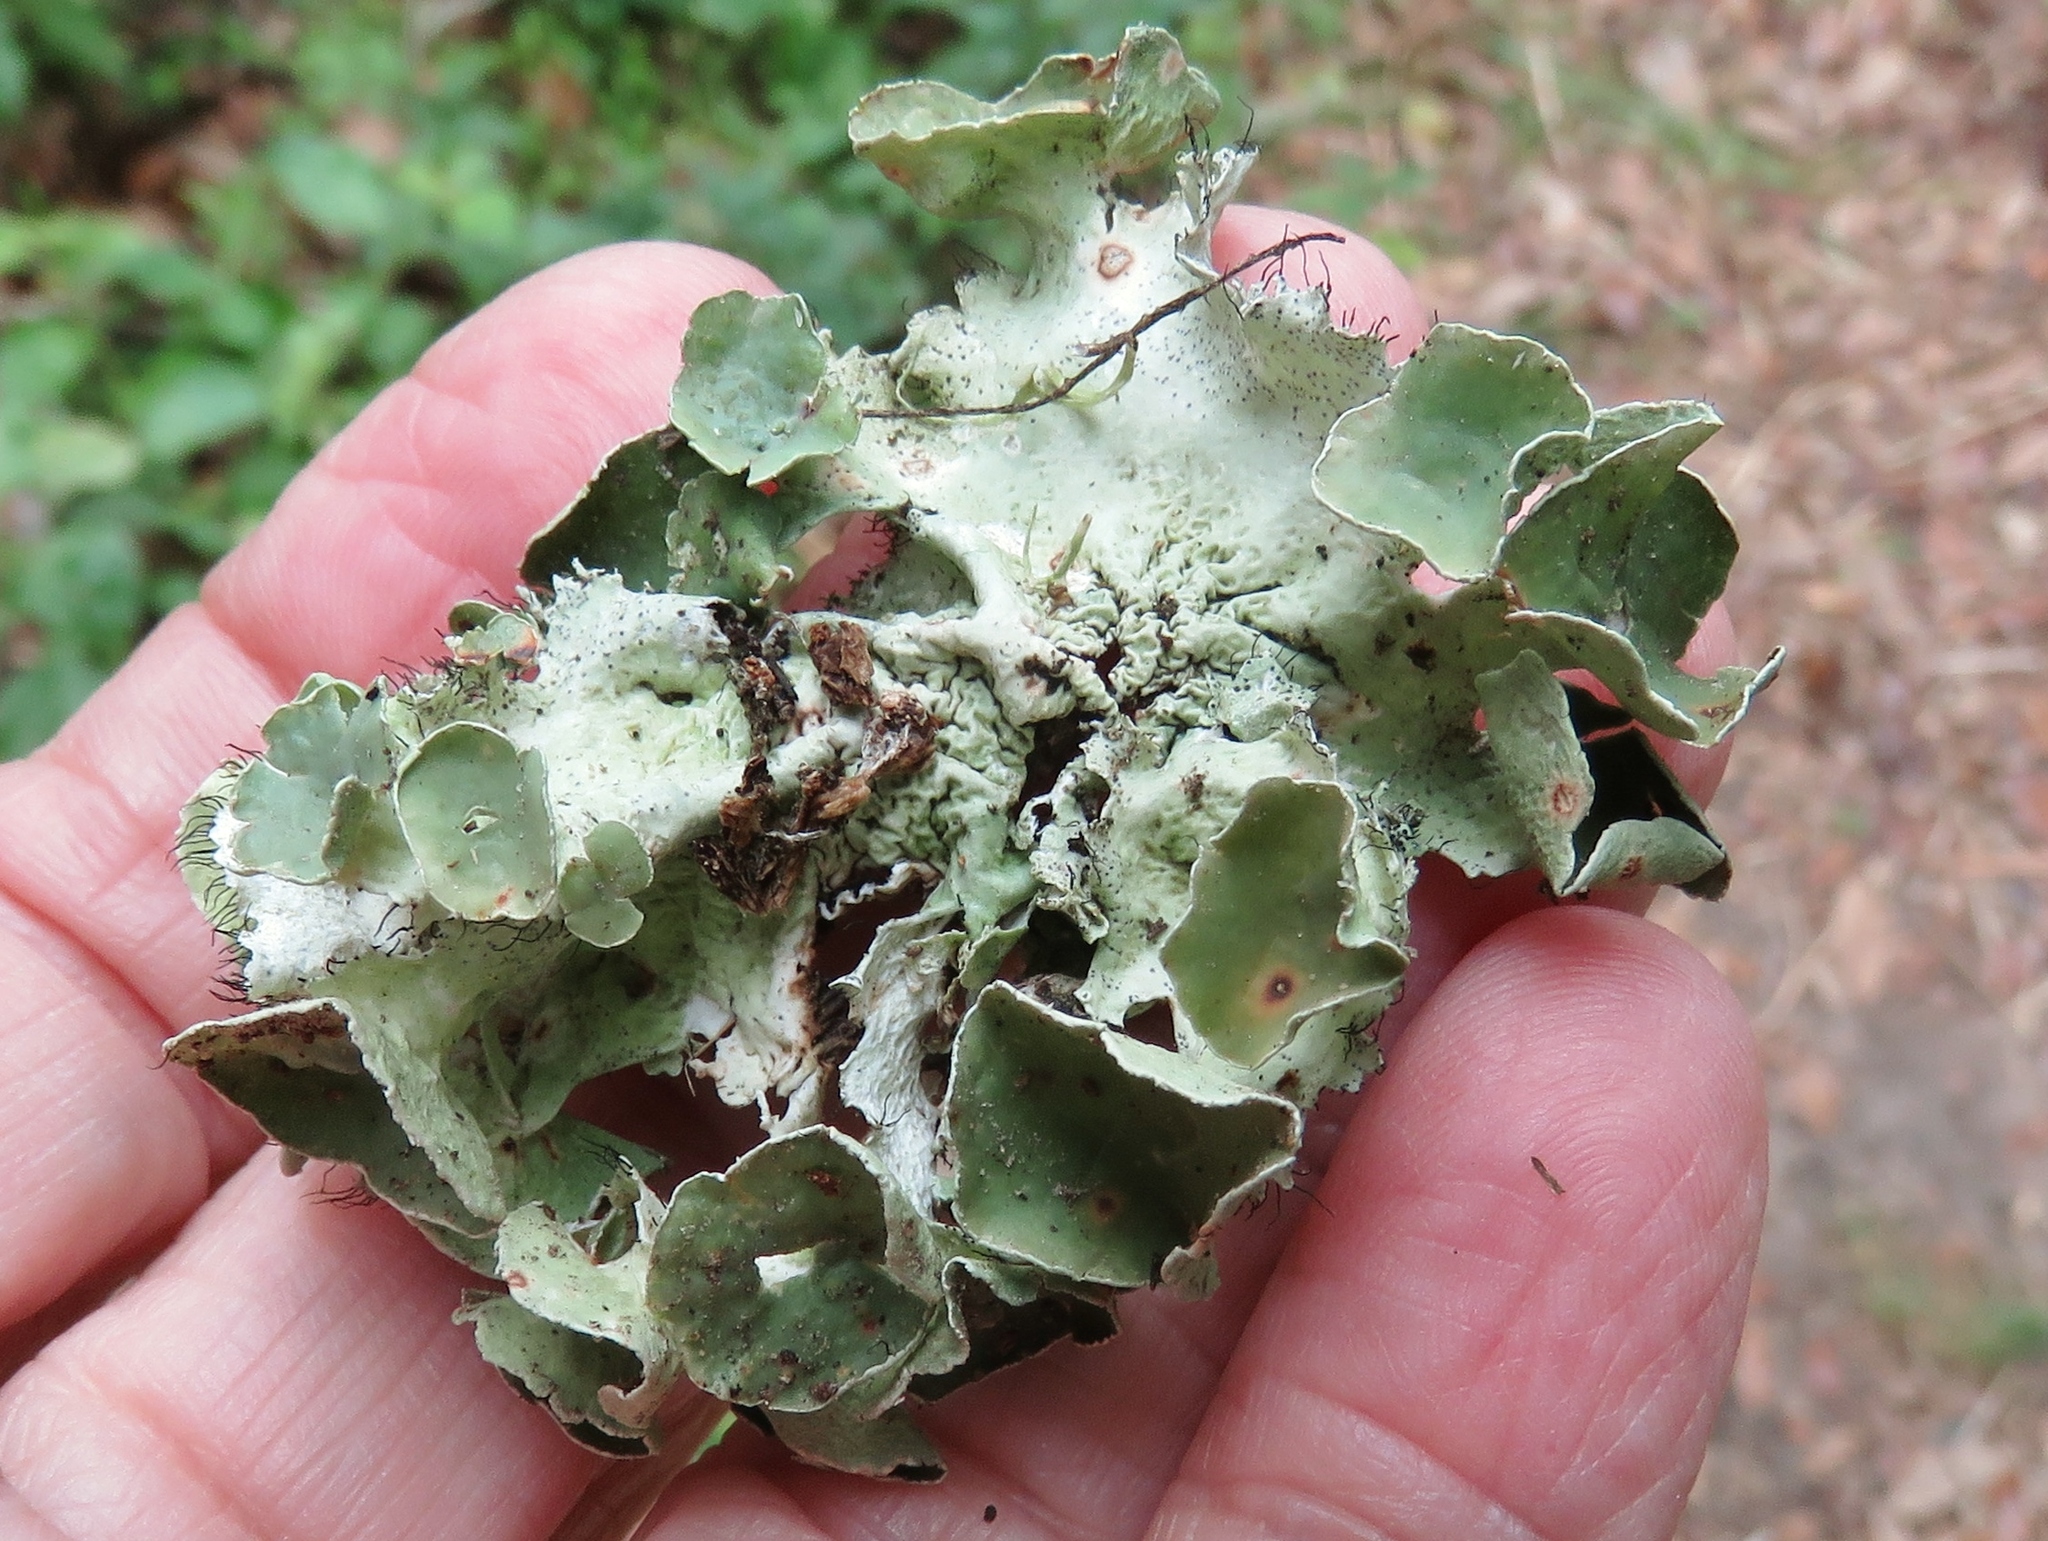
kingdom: Fungi
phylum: Ascomycota
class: Lecanoromycetes
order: Lecanorales
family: Parmeliaceae
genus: Parmotrema
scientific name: Parmotrema perforatum
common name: Perforated ruffle lichen
